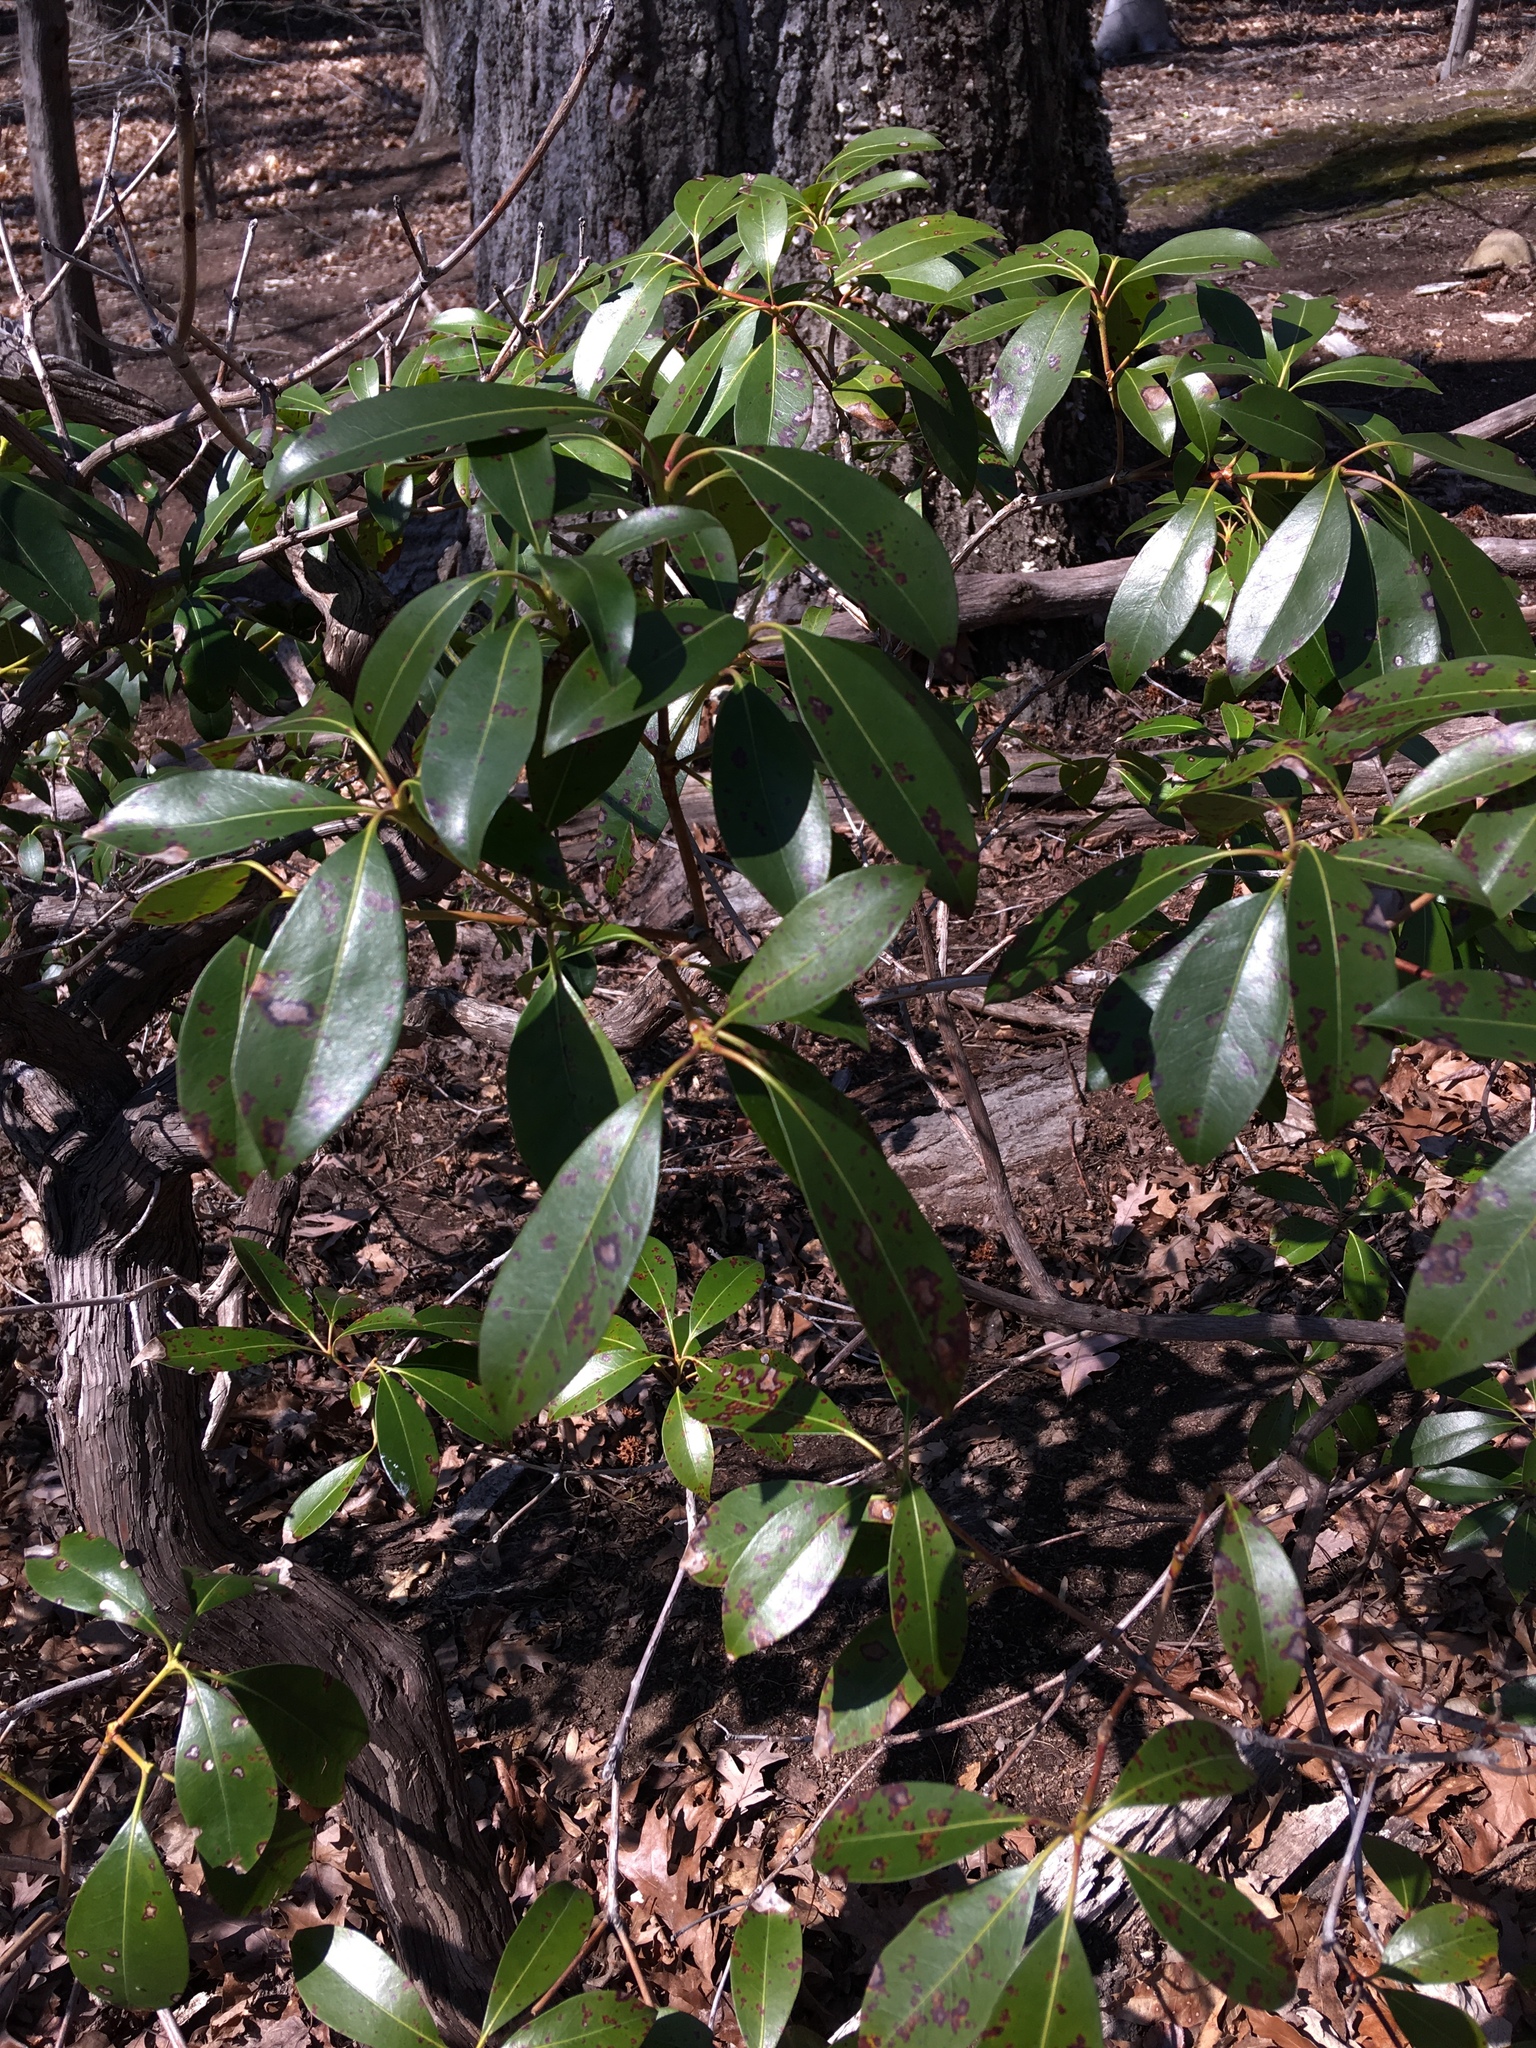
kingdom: Plantae
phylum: Tracheophyta
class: Magnoliopsida
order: Ericales
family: Ericaceae
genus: Kalmia
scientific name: Kalmia latifolia
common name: Mountain-laurel
